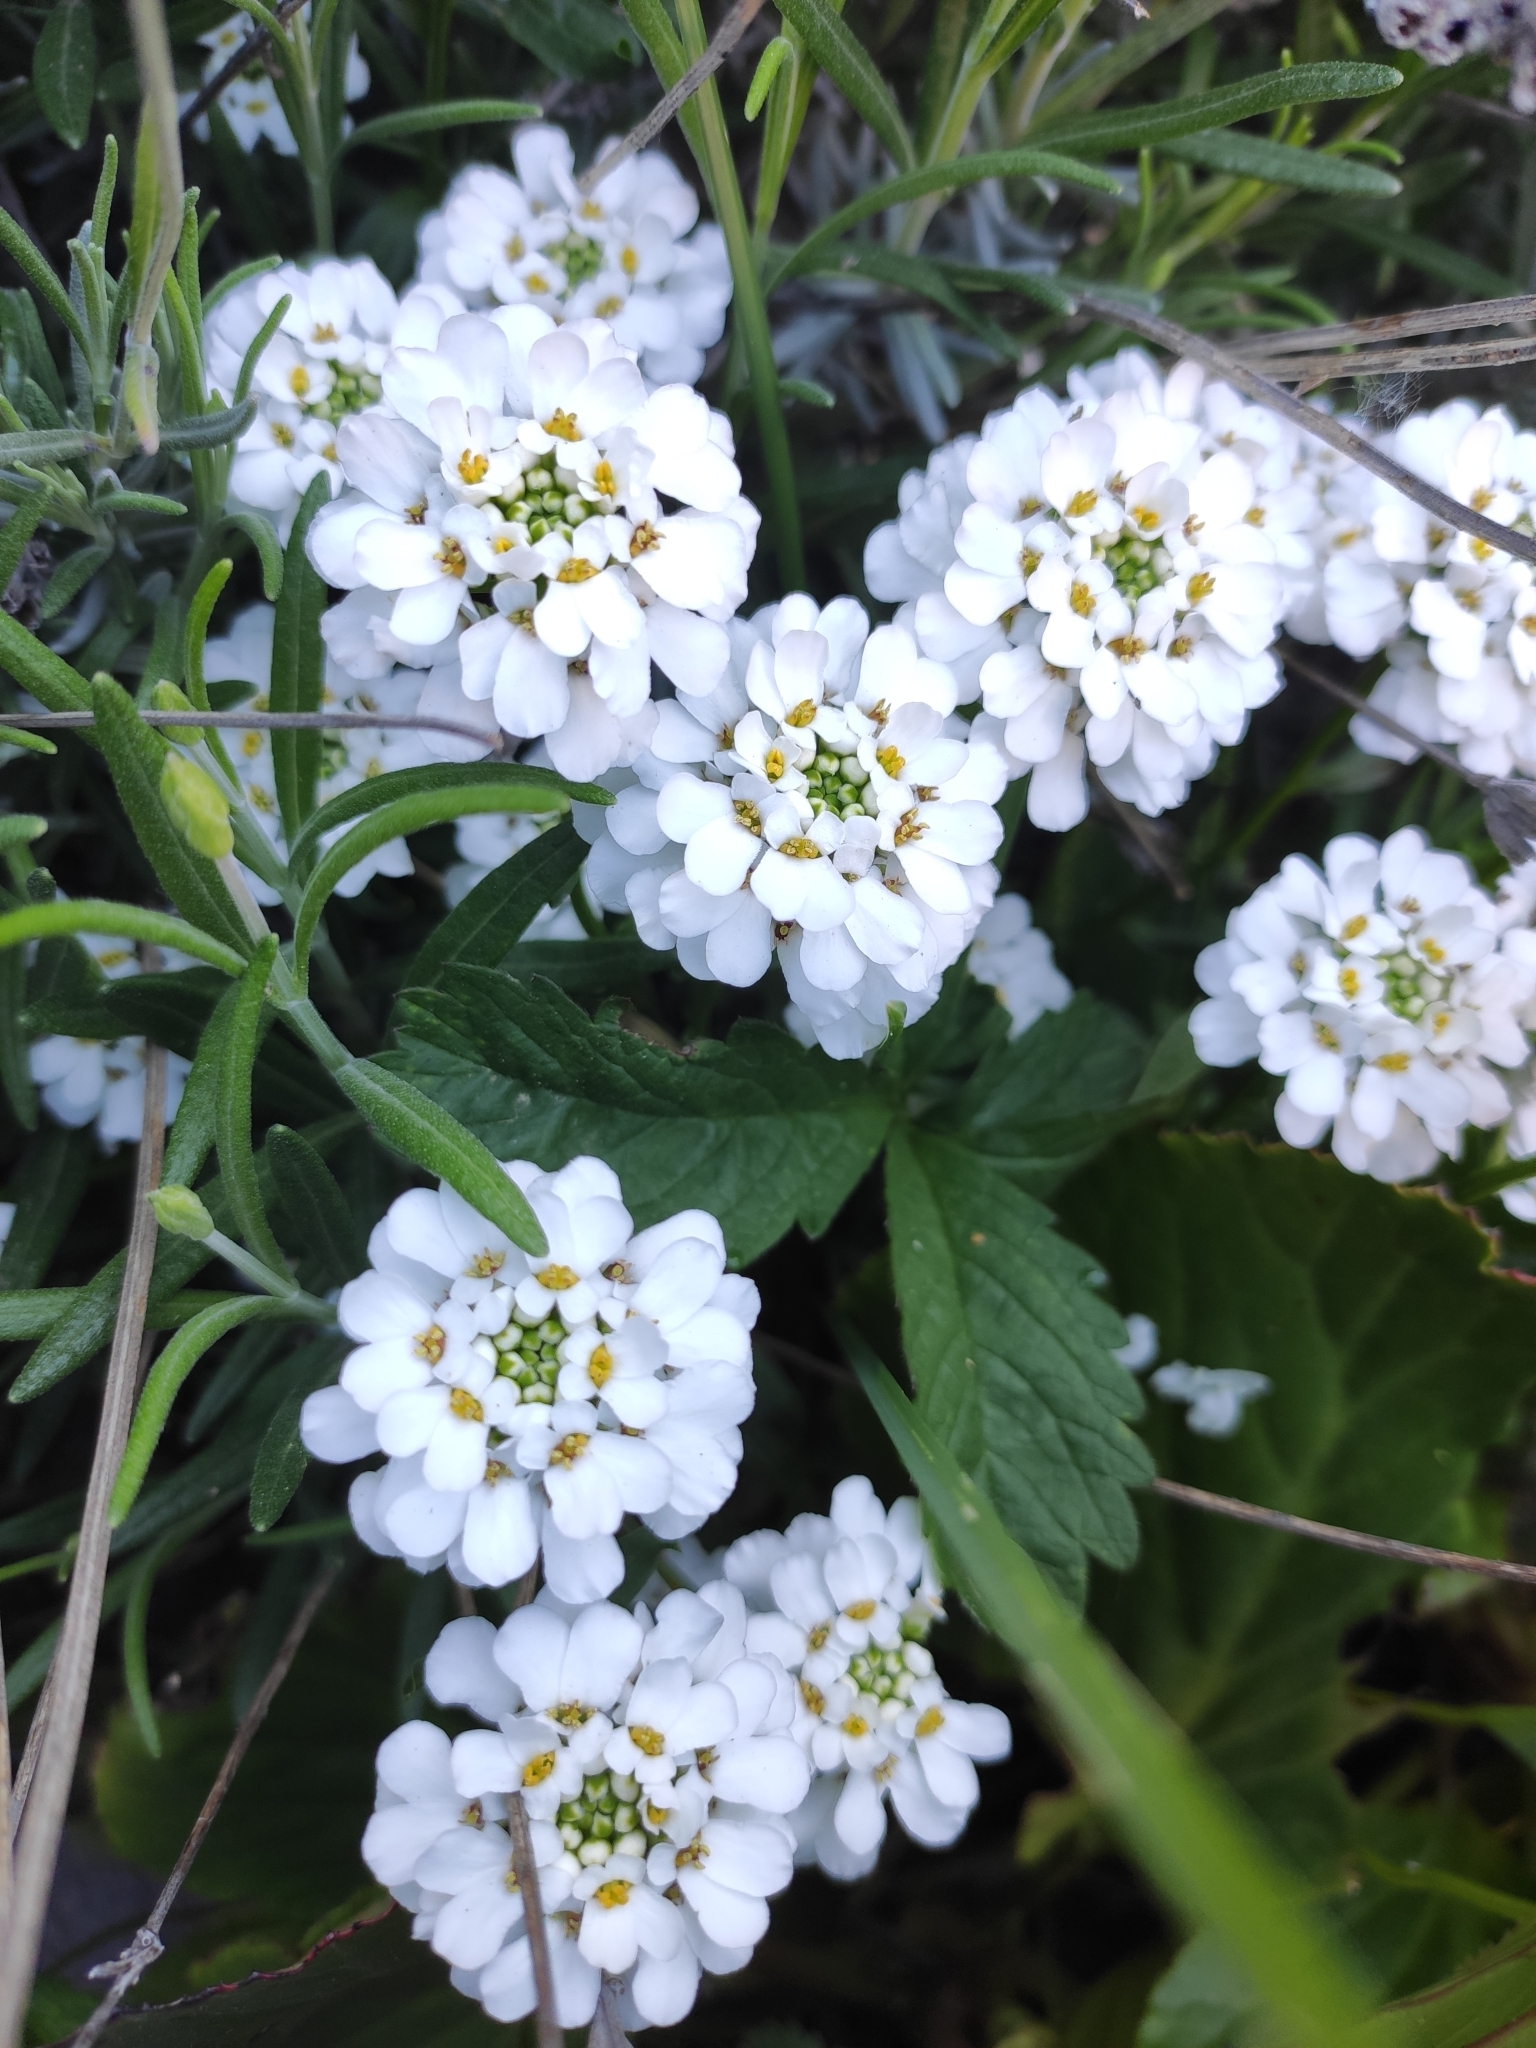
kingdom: Plantae
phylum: Tracheophyta
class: Magnoliopsida
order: Brassicales
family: Brassicaceae
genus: Iberis
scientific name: Iberis sempervirens
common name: Evergreen candytuft
